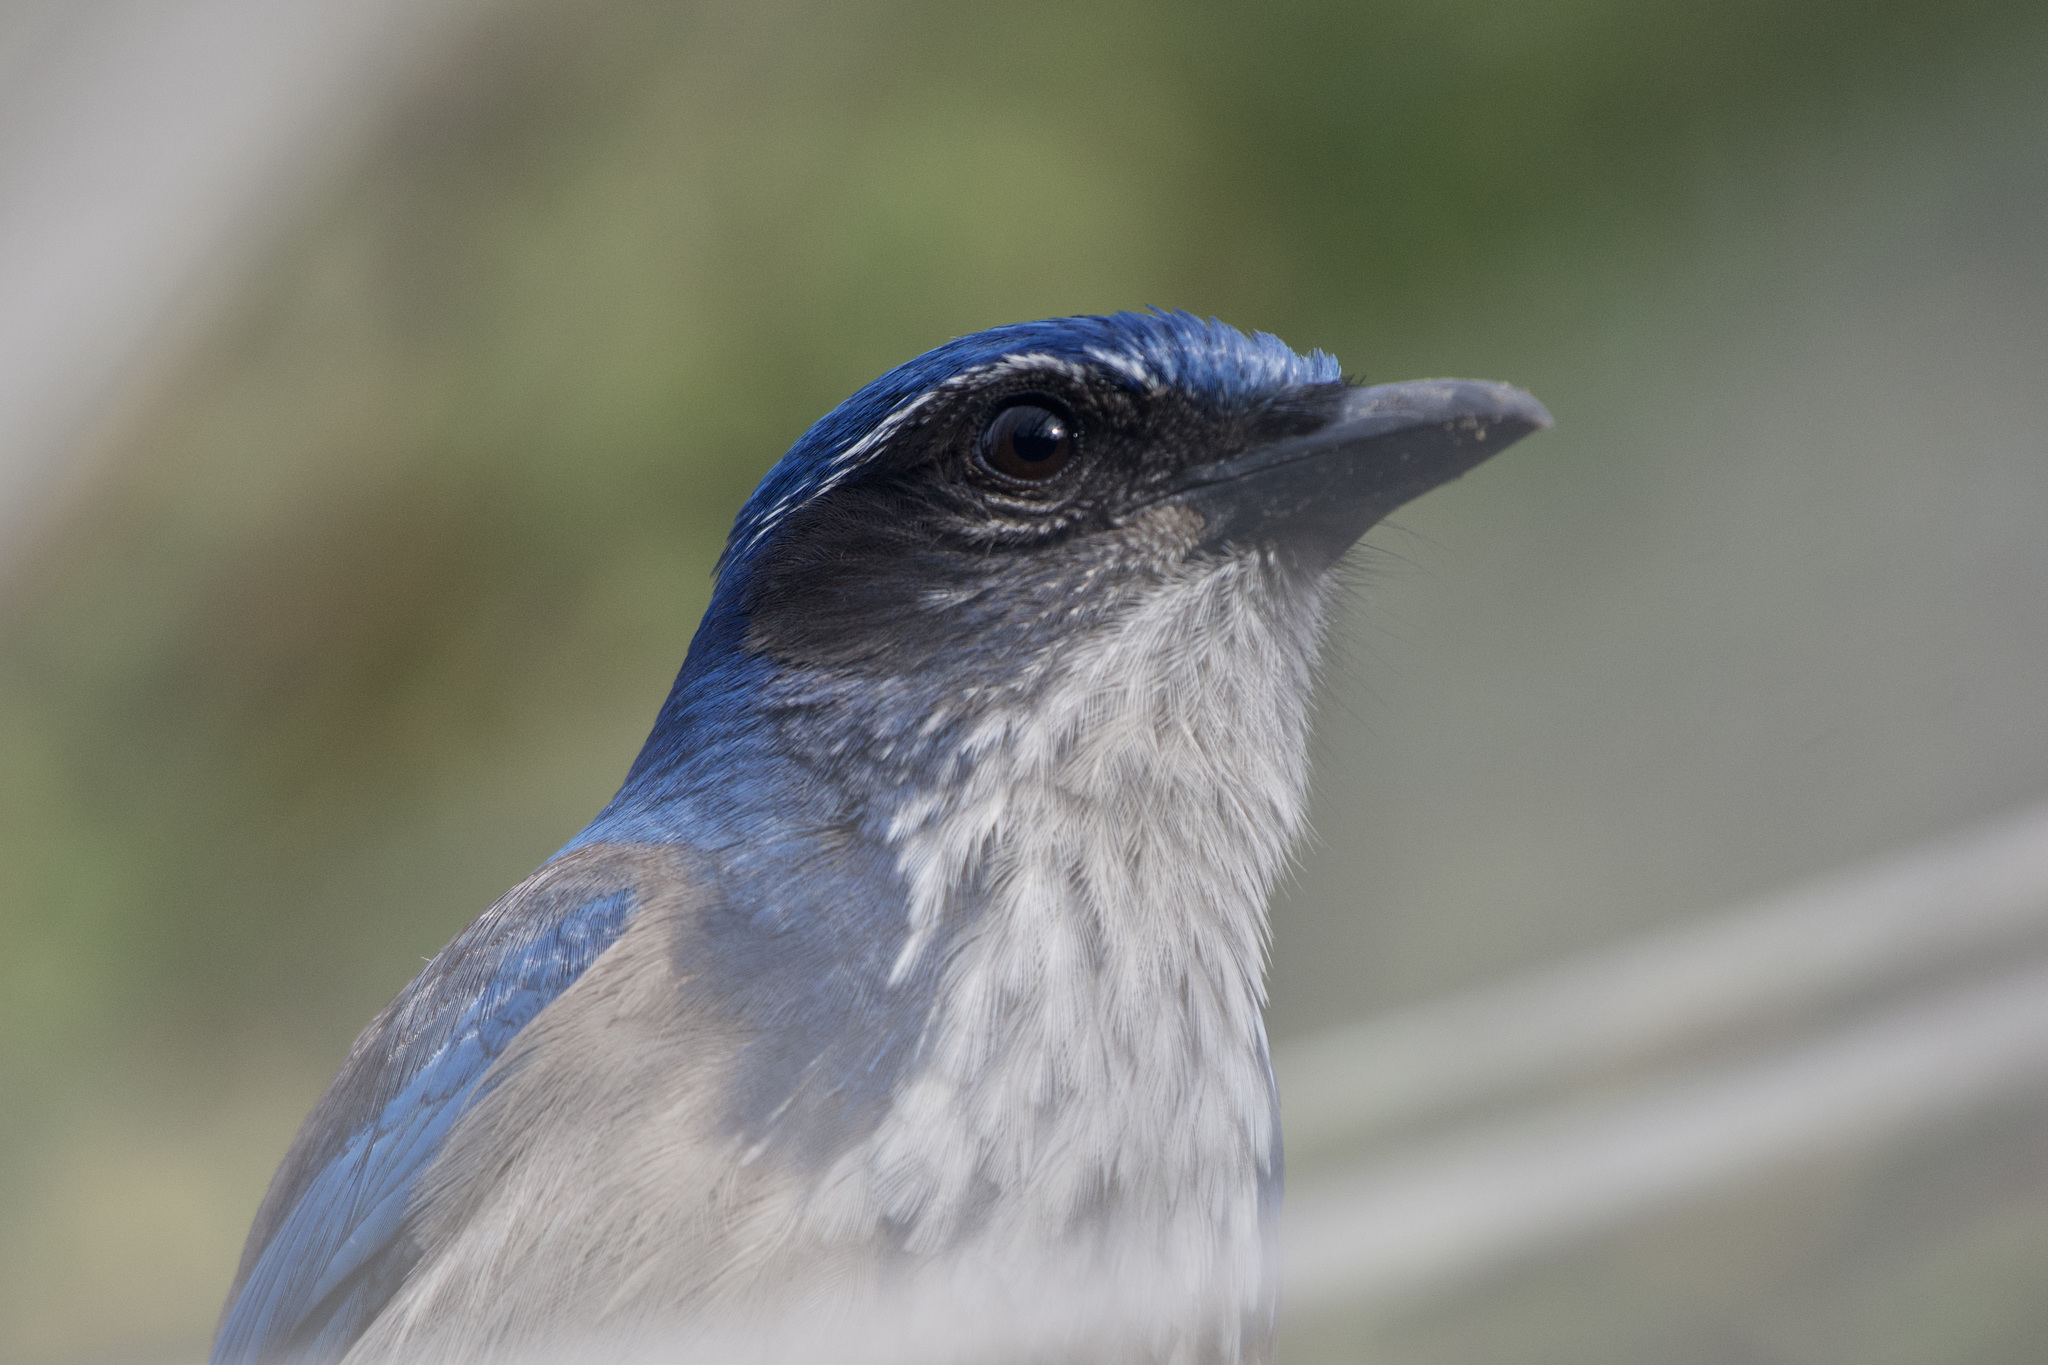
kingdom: Animalia
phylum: Chordata
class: Aves
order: Passeriformes
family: Corvidae
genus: Aphelocoma
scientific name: Aphelocoma californica
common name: California scrub-jay
